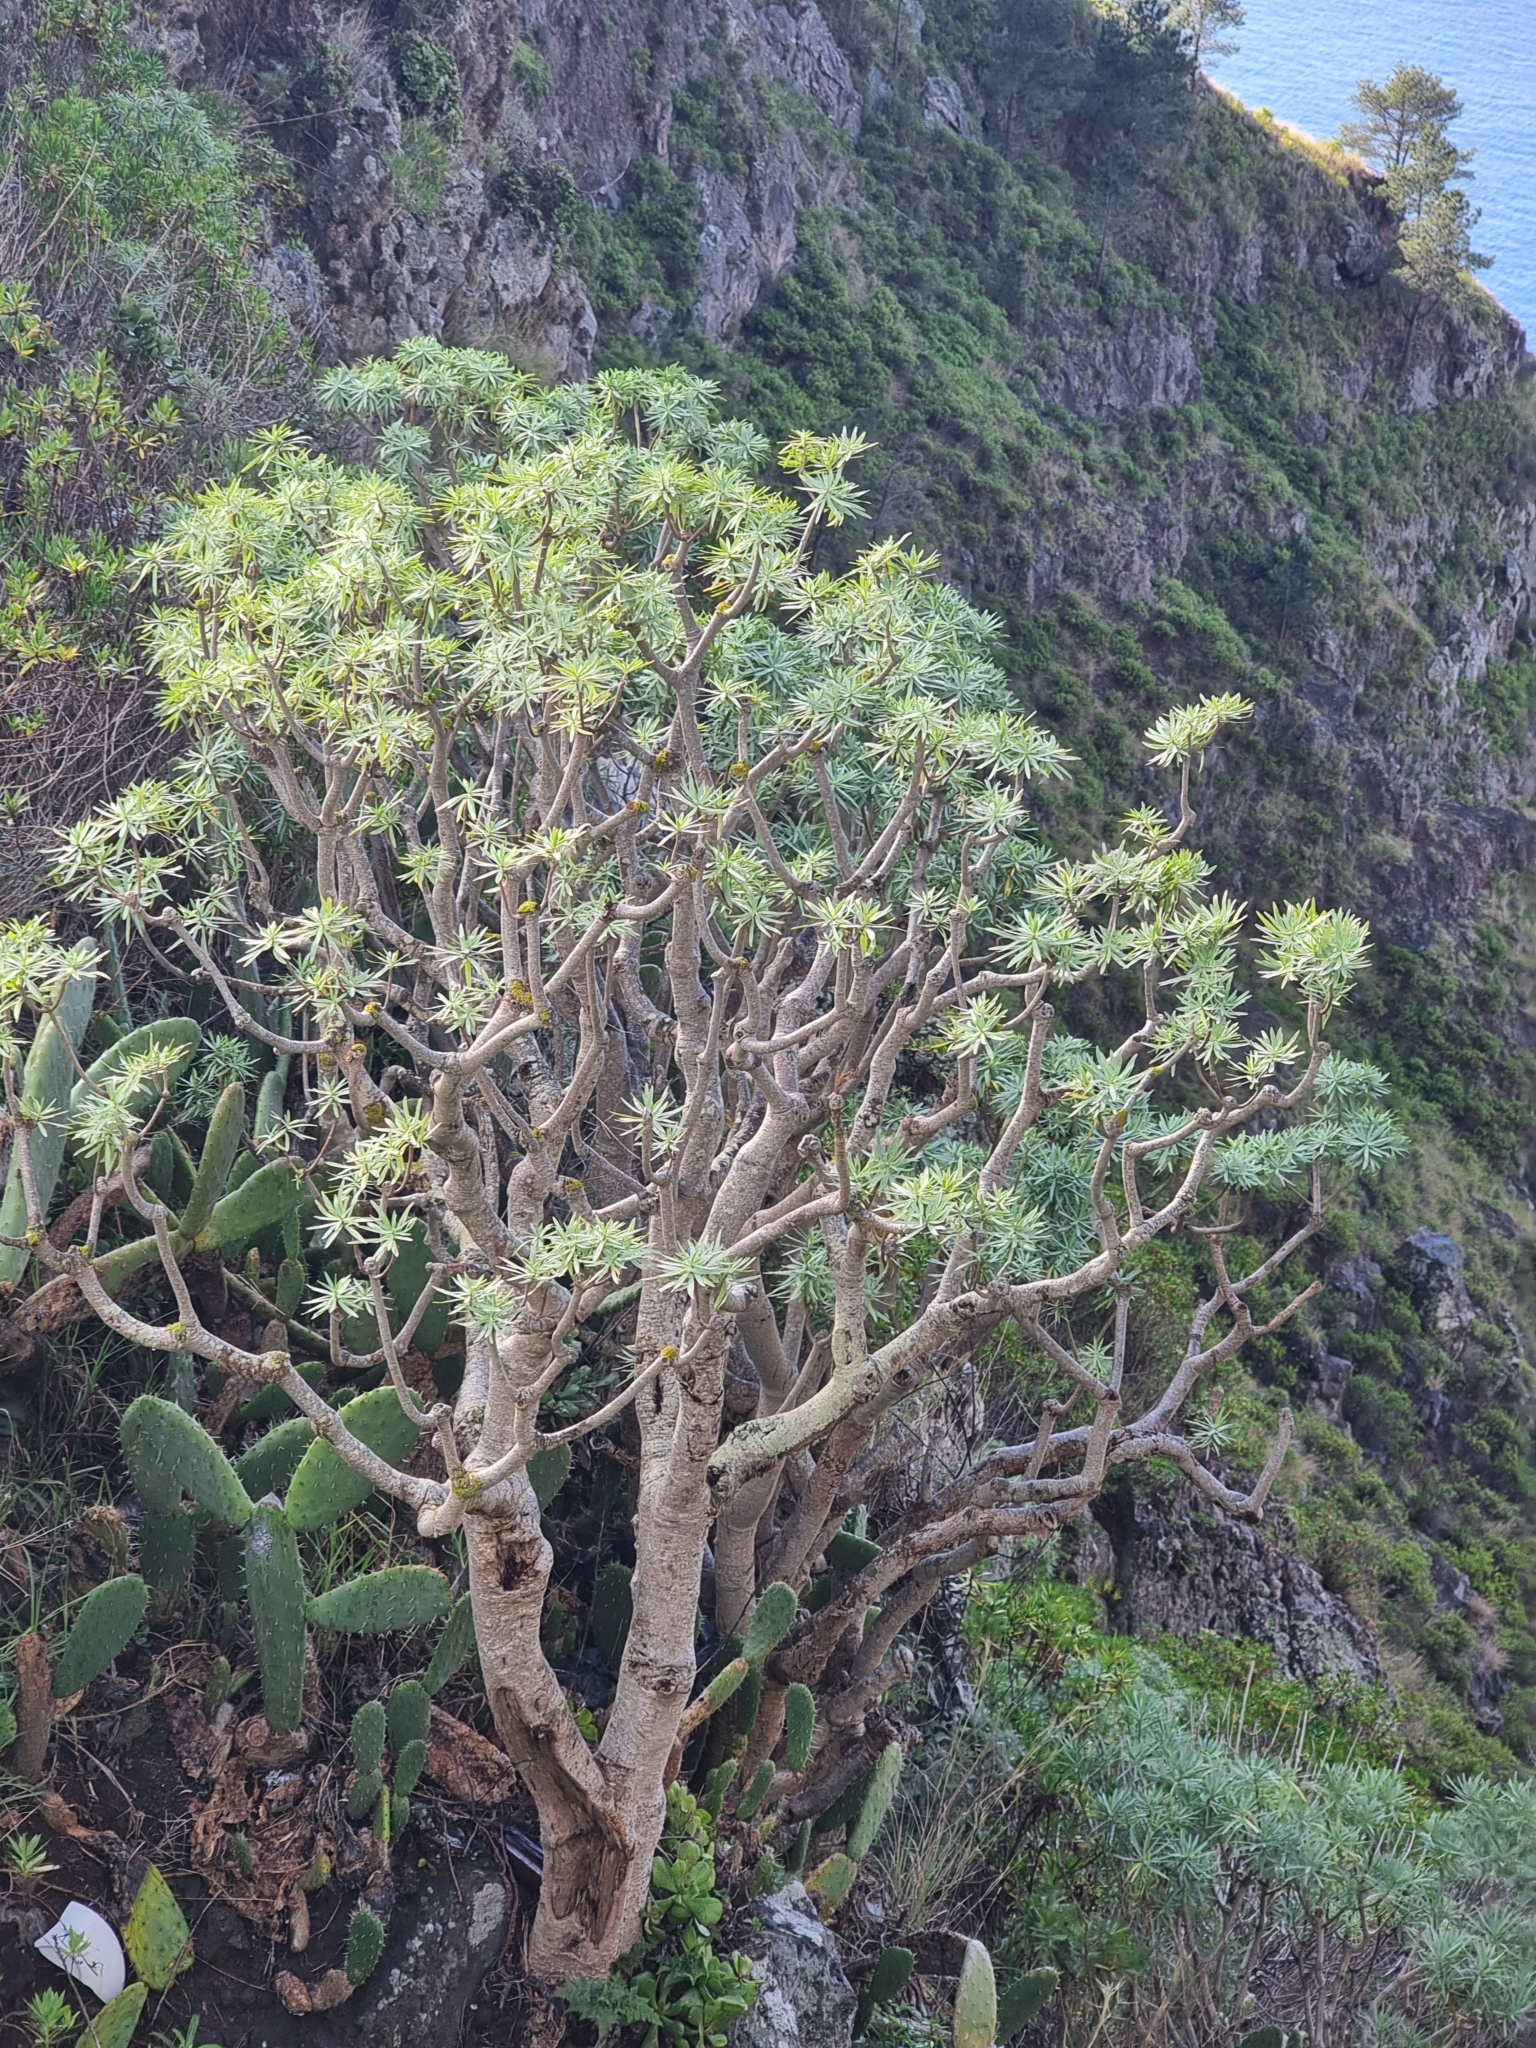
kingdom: Plantae
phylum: Tracheophyta
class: Magnoliopsida
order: Malpighiales
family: Euphorbiaceae
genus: Euphorbia
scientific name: Euphorbia piscatoria
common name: Fish-stunning spurge
